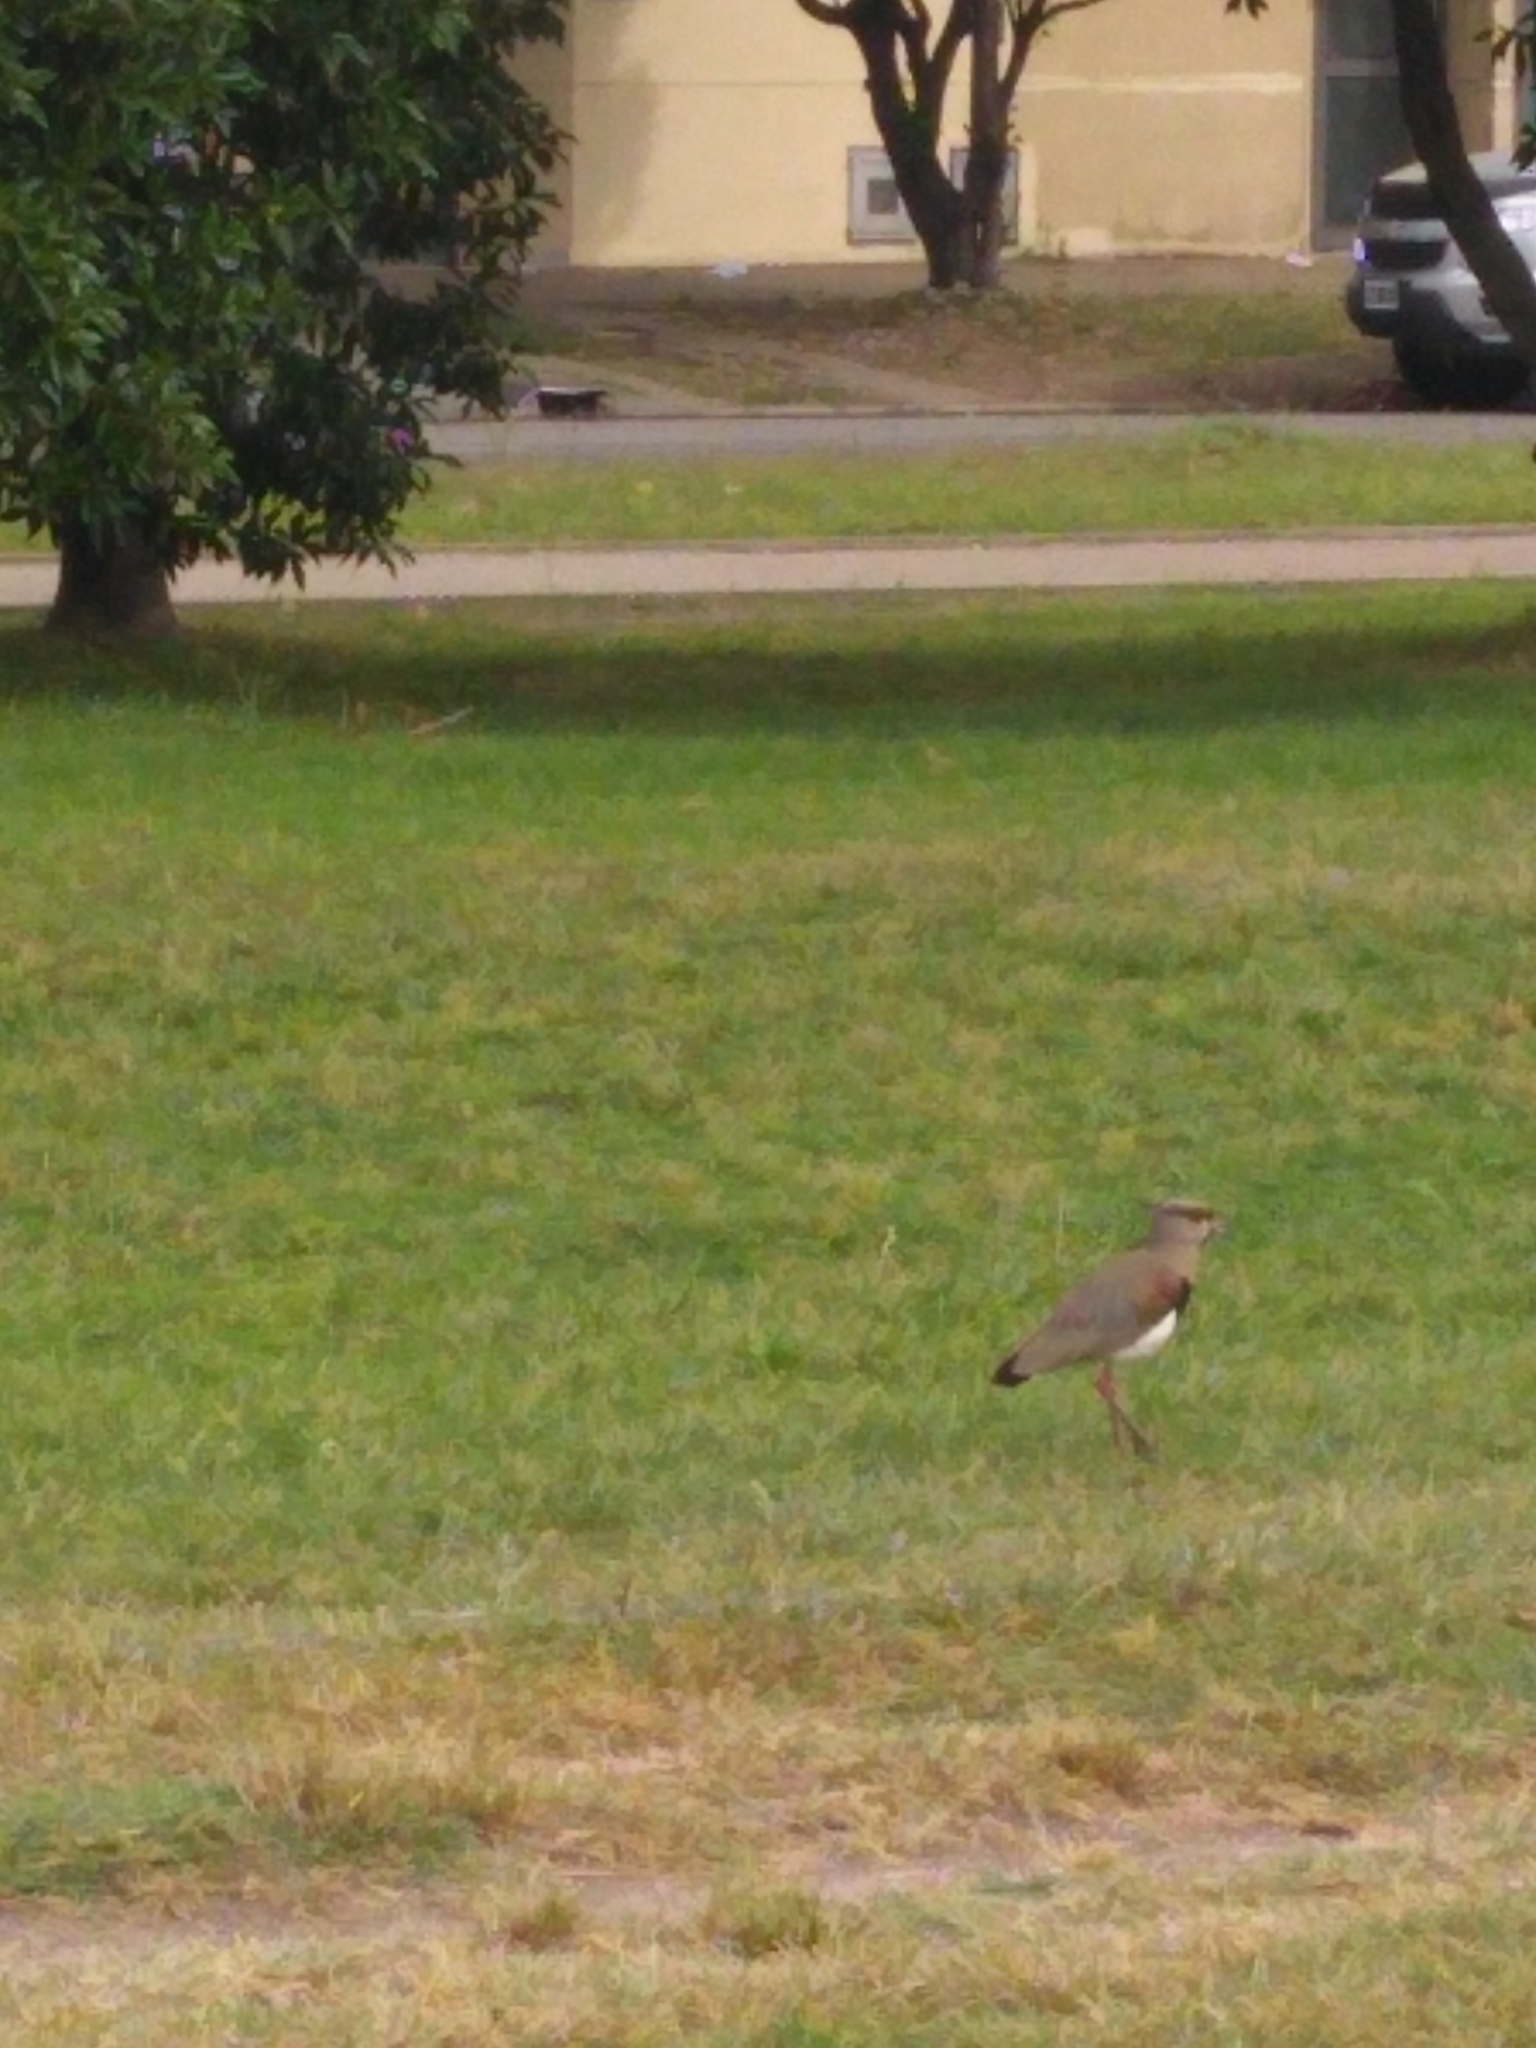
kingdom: Animalia
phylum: Chordata
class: Aves
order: Charadriiformes
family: Charadriidae
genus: Vanellus
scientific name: Vanellus chilensis
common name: Southern lapwing
